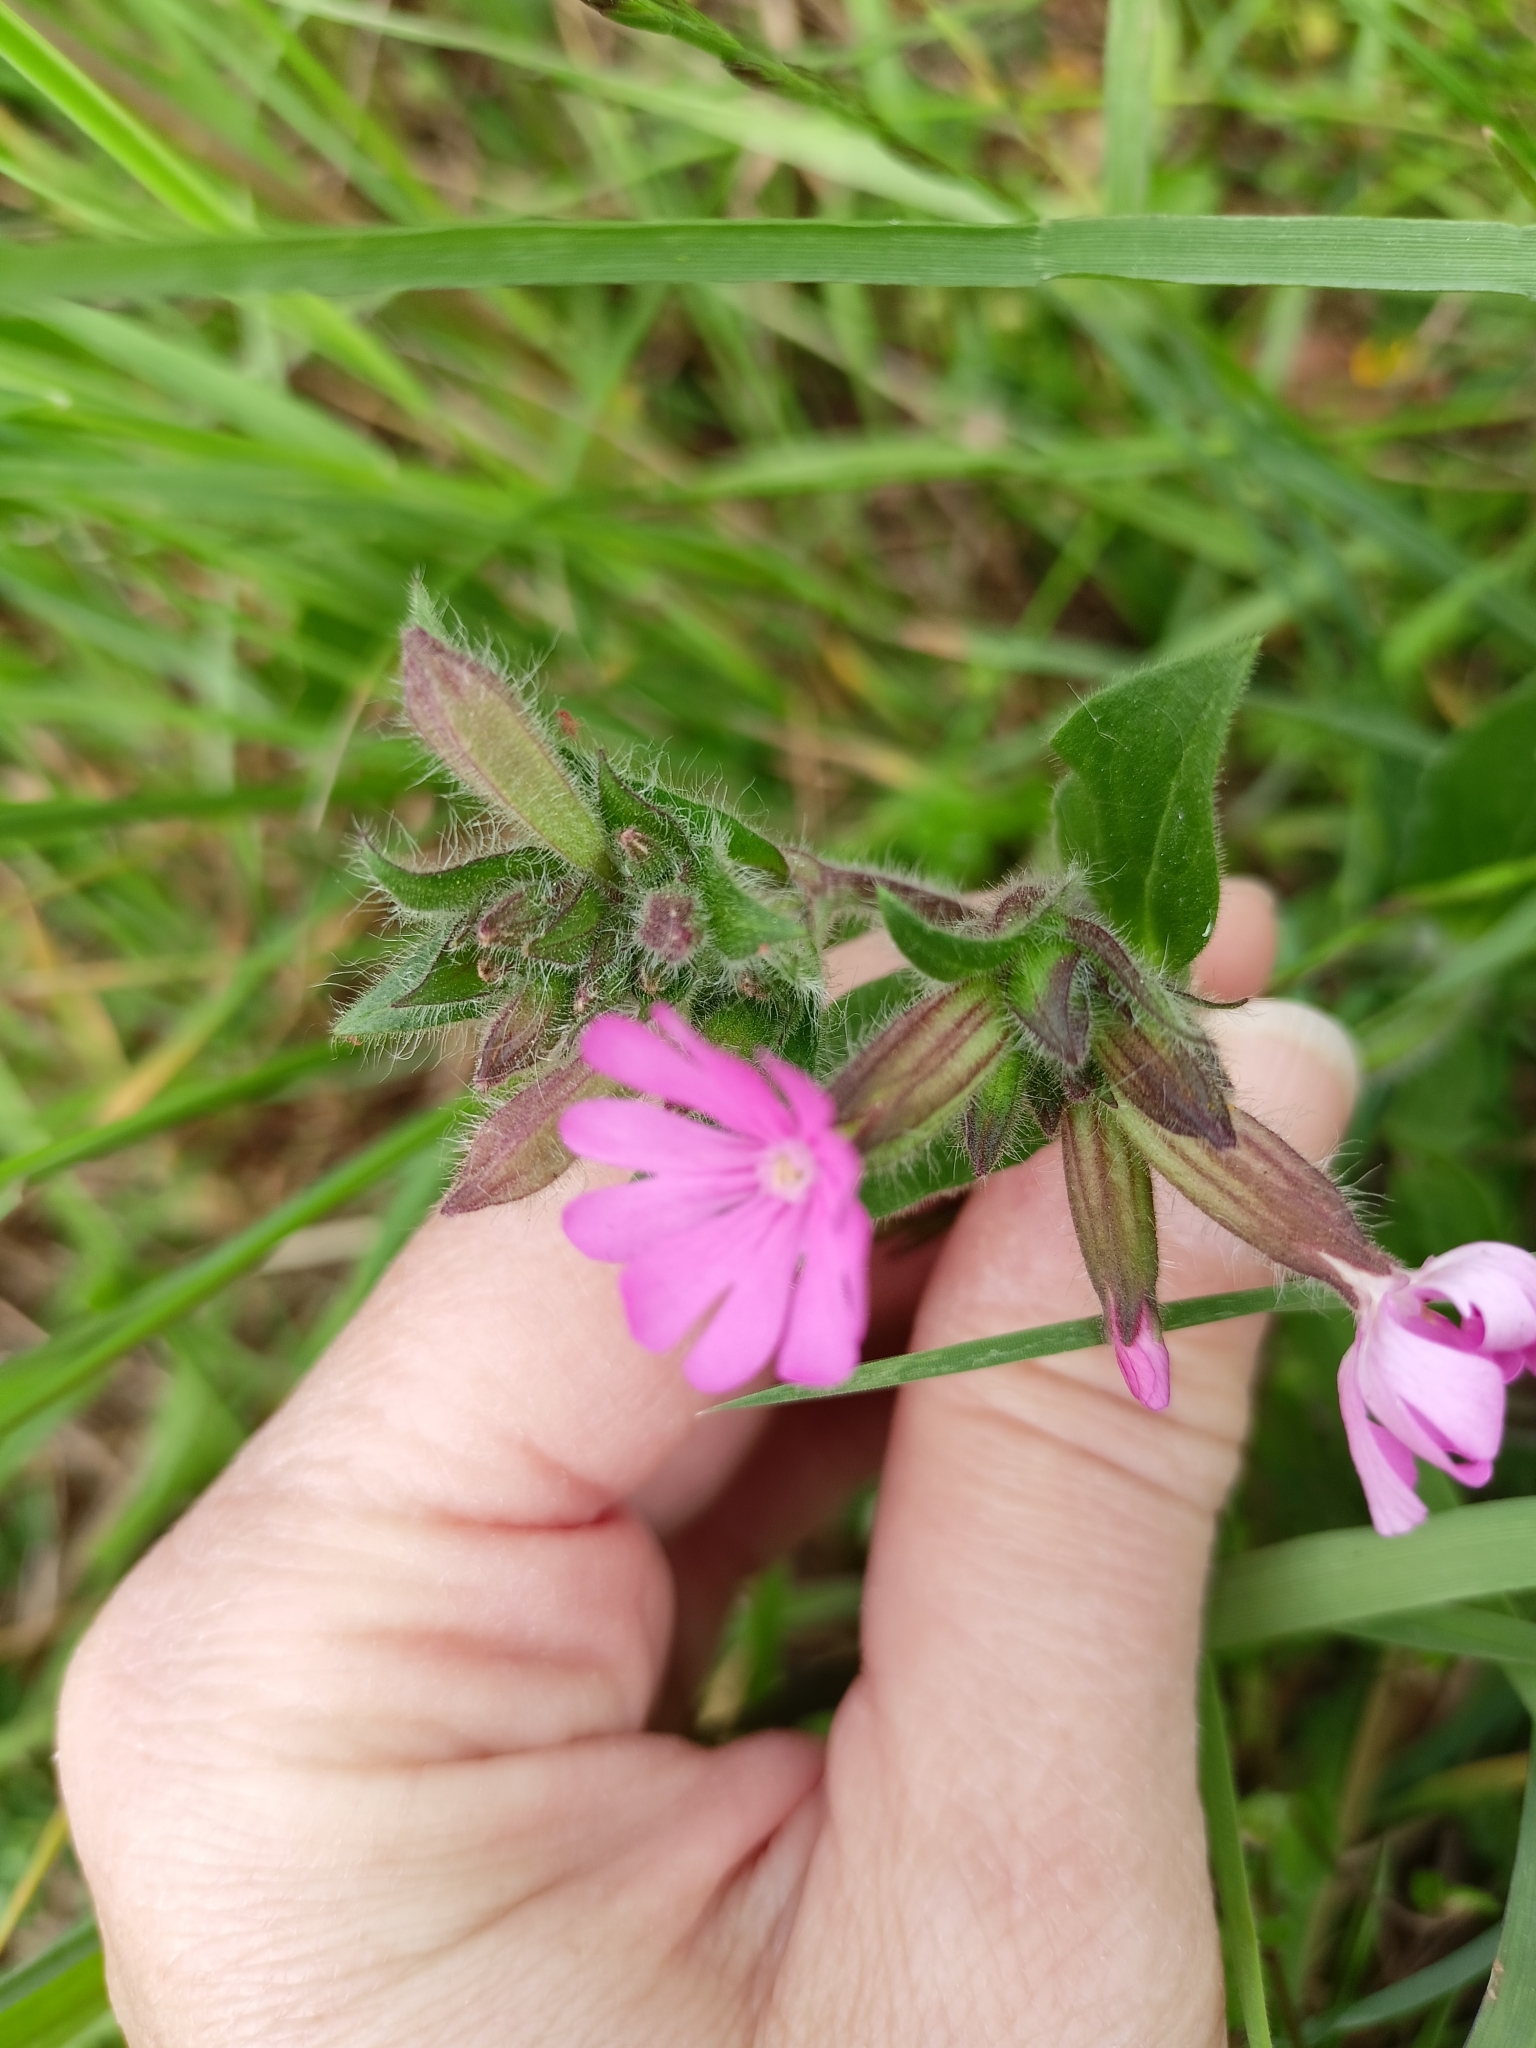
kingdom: Plantae
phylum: Tracheophyta
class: Magnoliopsida
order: Caryophyllales
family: Caryophyllaceae
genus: Silene
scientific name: Silene dioica
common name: Red campion
